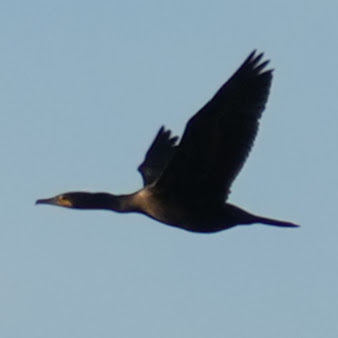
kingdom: Animalia
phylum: Chordata
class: Aves
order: Suliformes
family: Phalacrocoracidae
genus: Phalacrocorax
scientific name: Phalacrocorax auritus
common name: Double-crested cormorant
